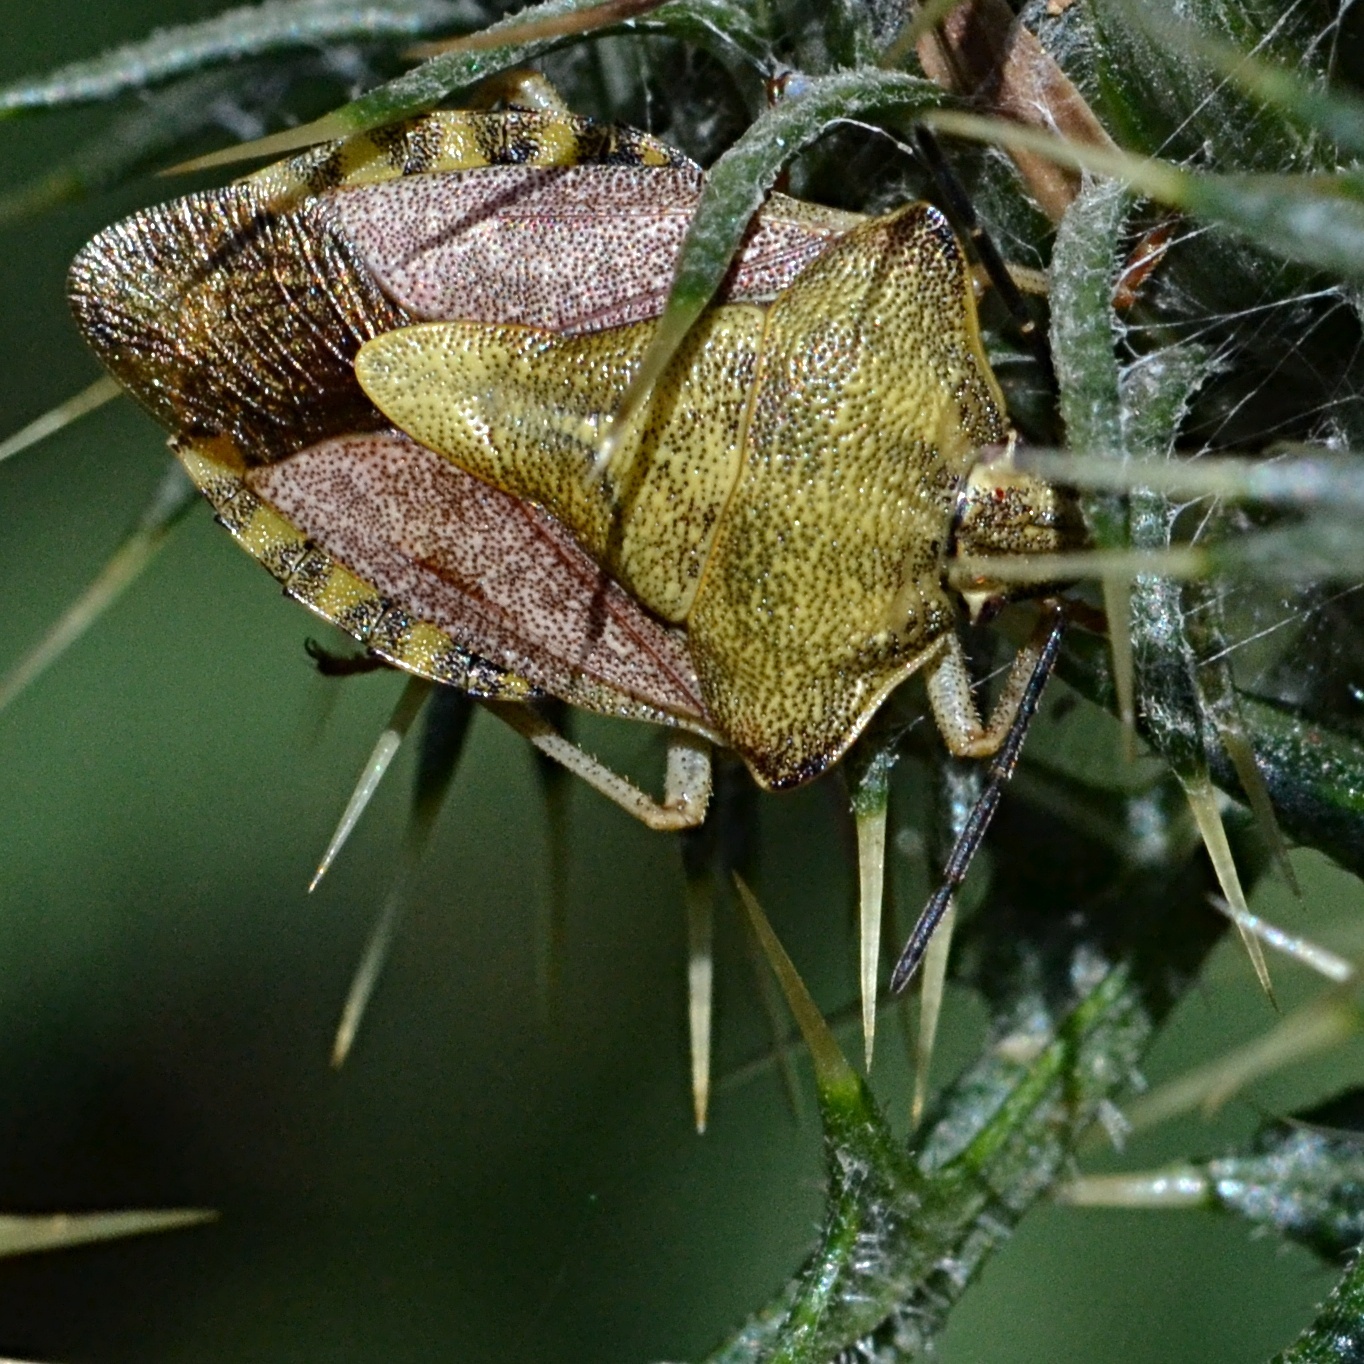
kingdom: Animalia
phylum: Arthropoda
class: Insecta
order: Hemiptera
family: Pentatomidae
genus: Carpocoris
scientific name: Carpocoris purpureipennis
